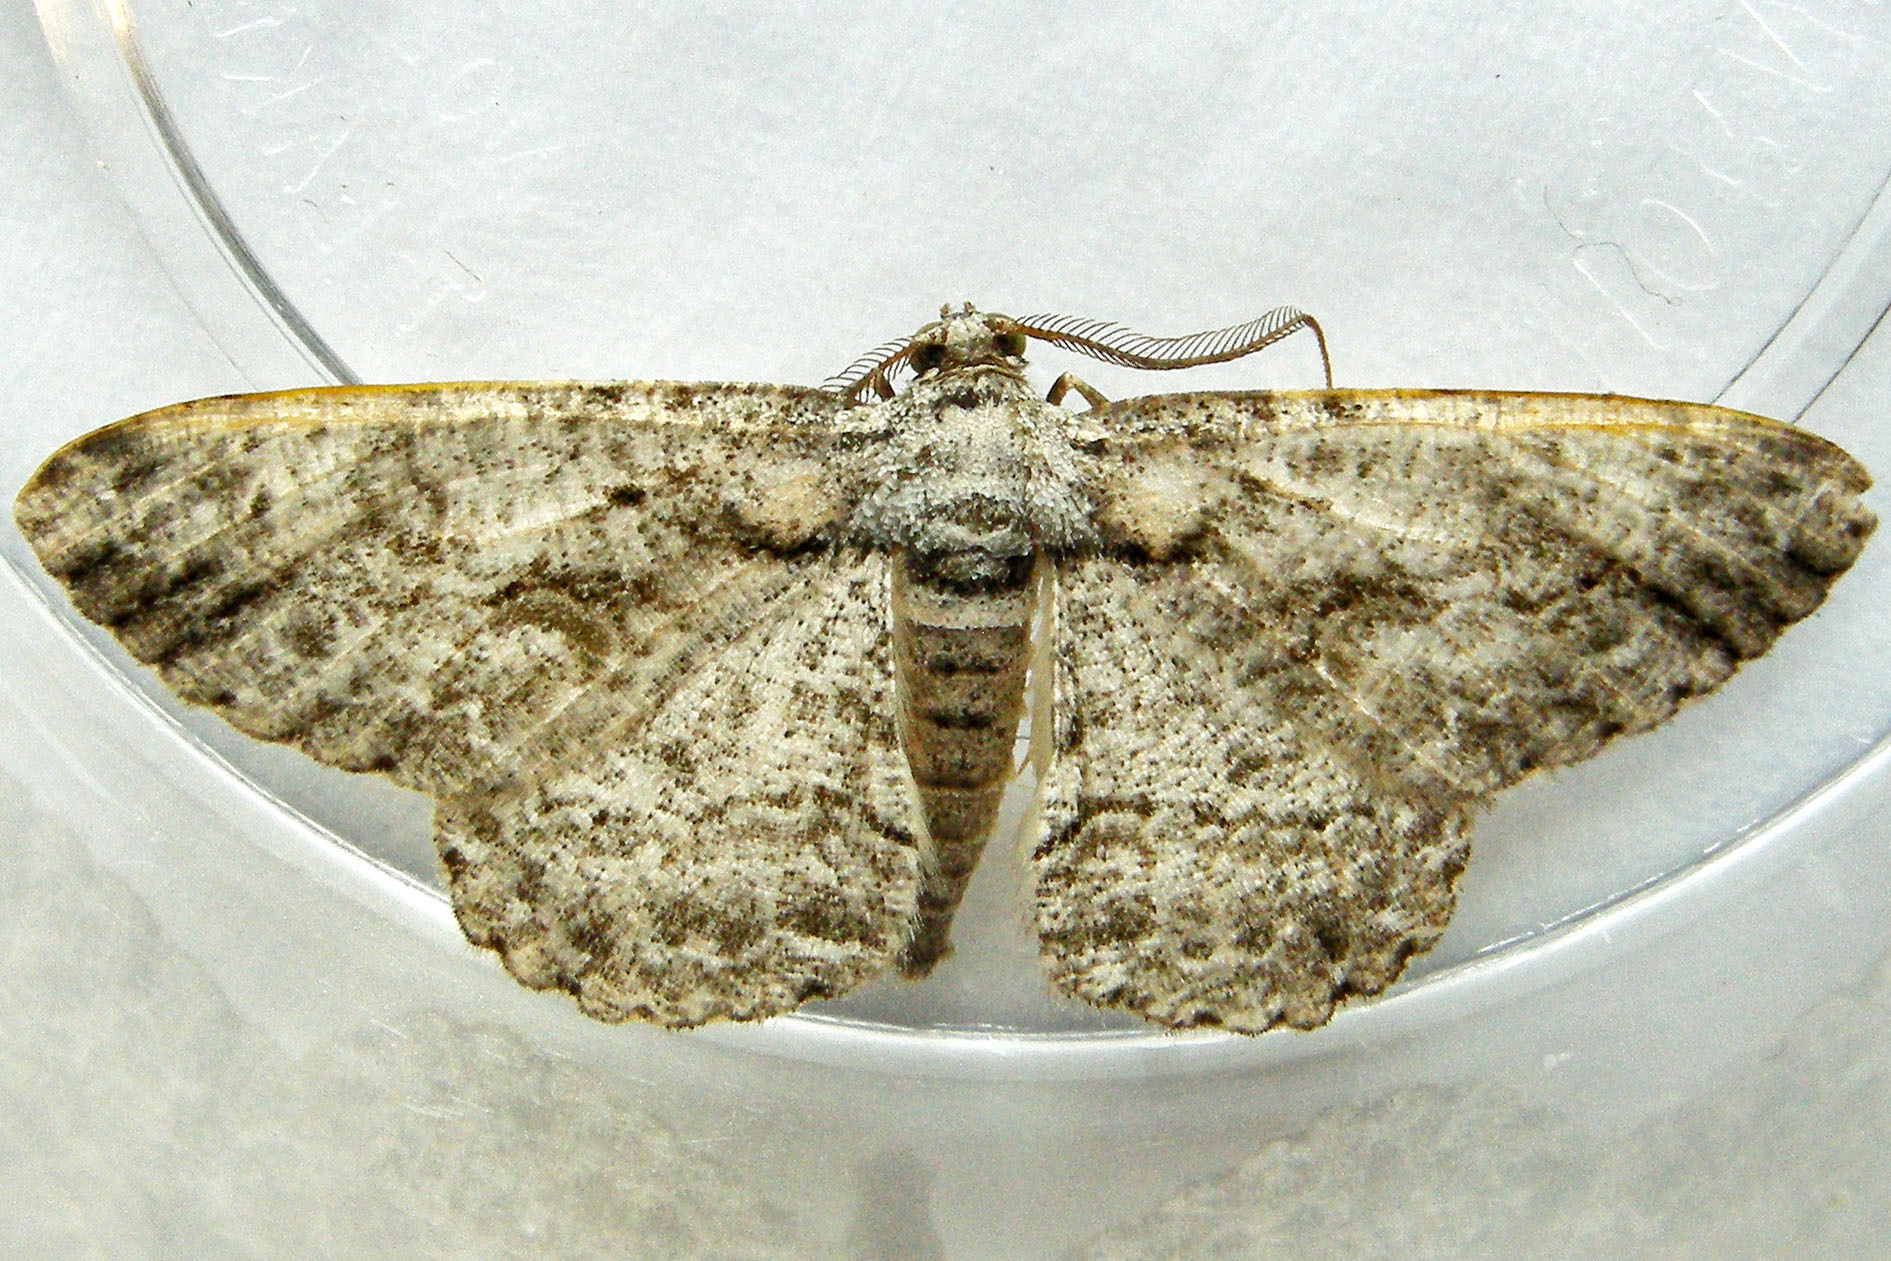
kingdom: Animalia
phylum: Arthropoda
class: Insecta
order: Lepidoptera
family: Geometridae
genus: Anavitrinella
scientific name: Anavitrinella pampinaria
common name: Common gray
